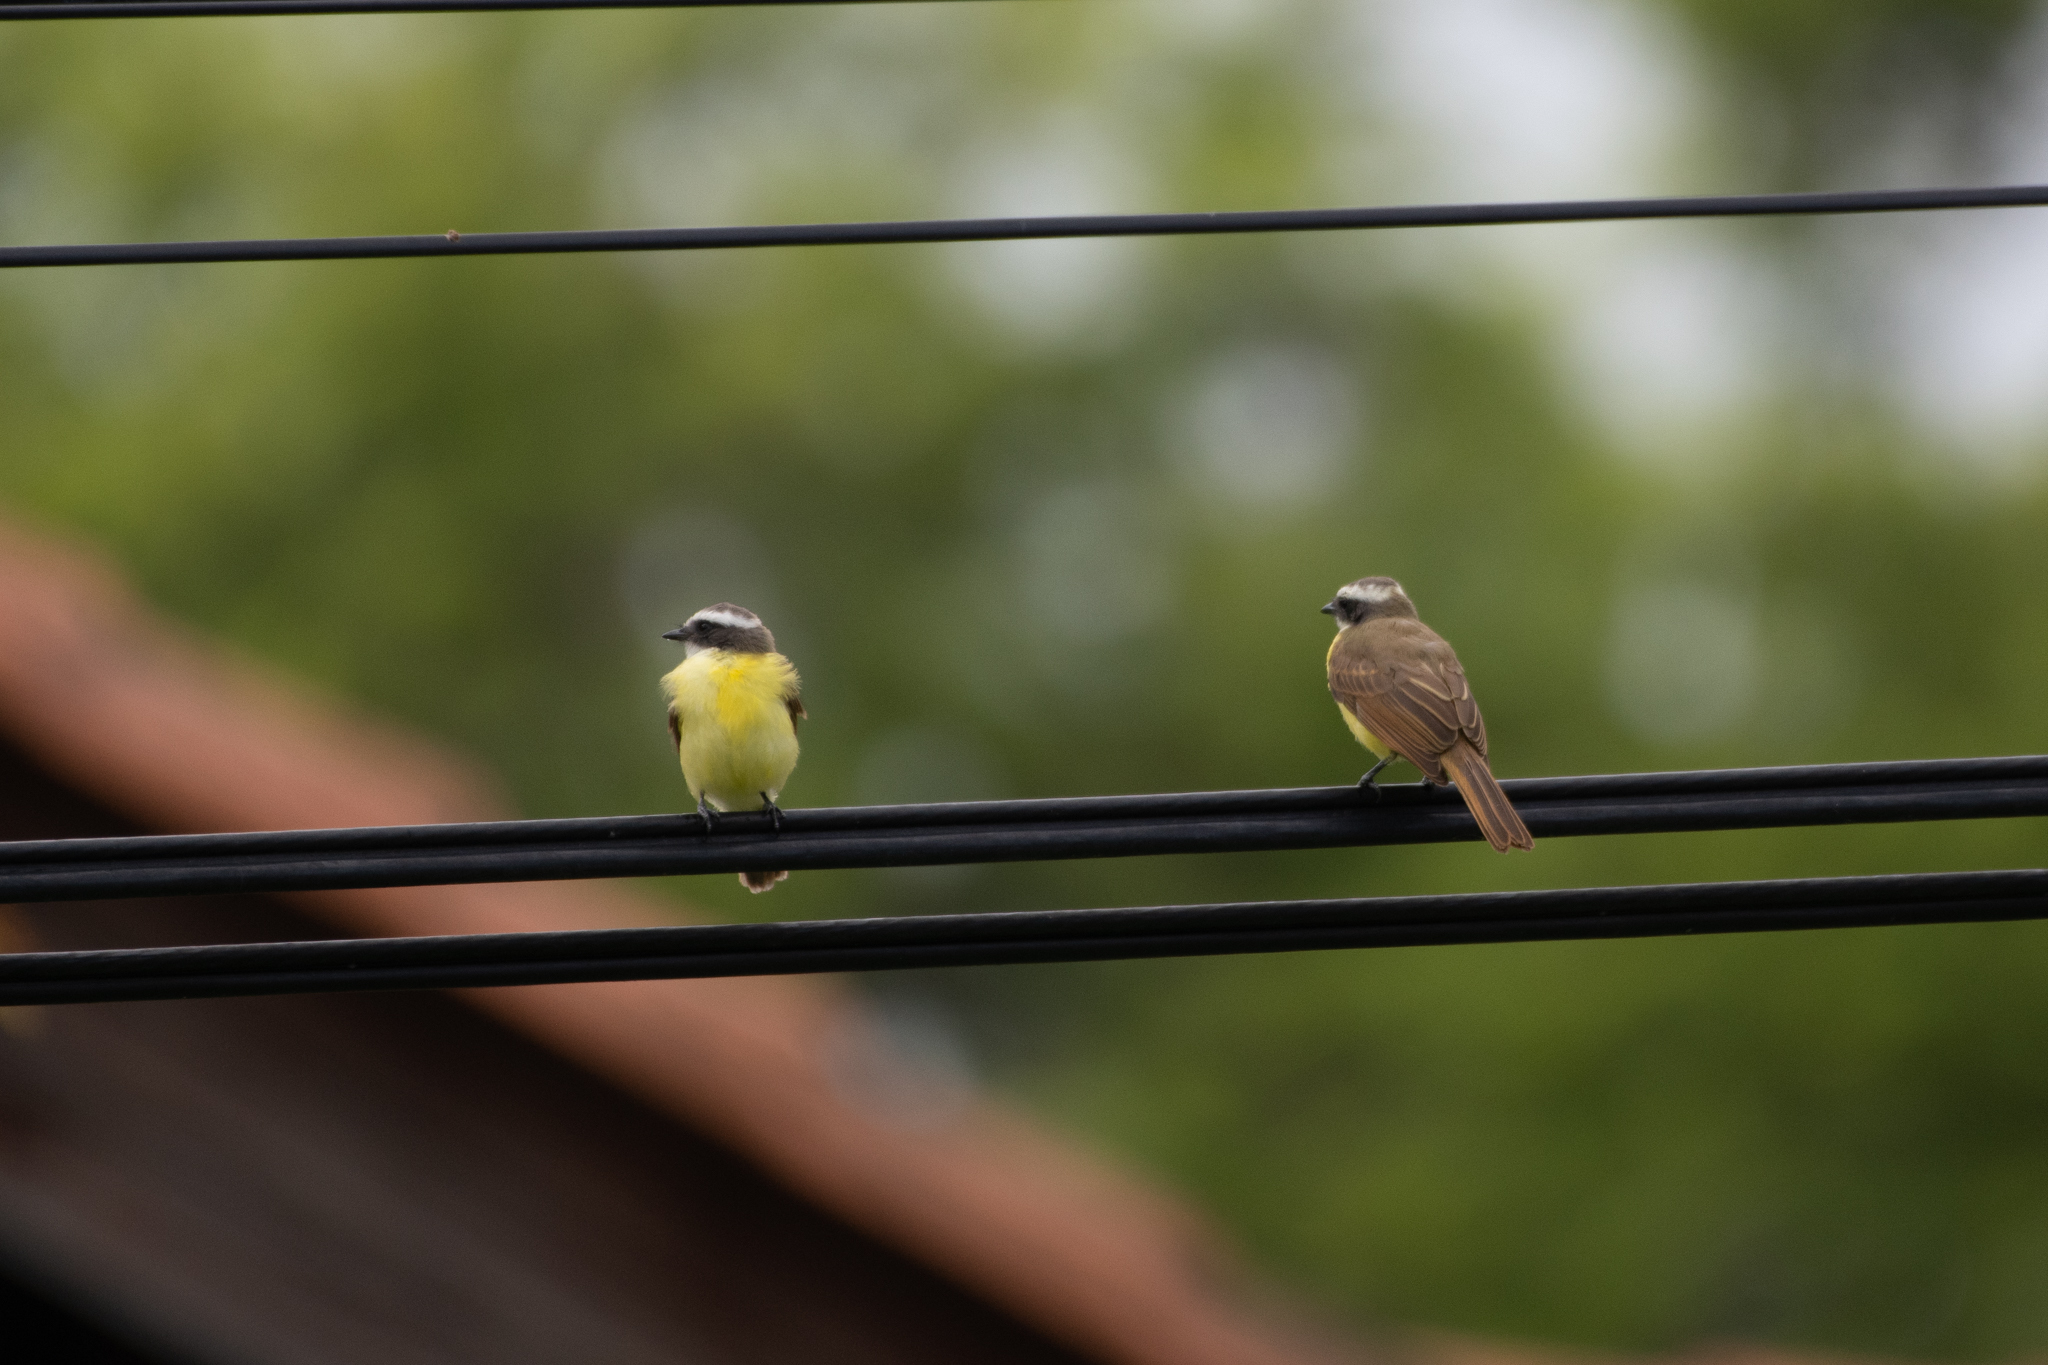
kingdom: Animalia
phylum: Chordata
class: Aves
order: Passeriformes
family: Tyrannidae
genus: Myiozetetes
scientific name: Myiozetetes similis
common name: Social flycatcher
